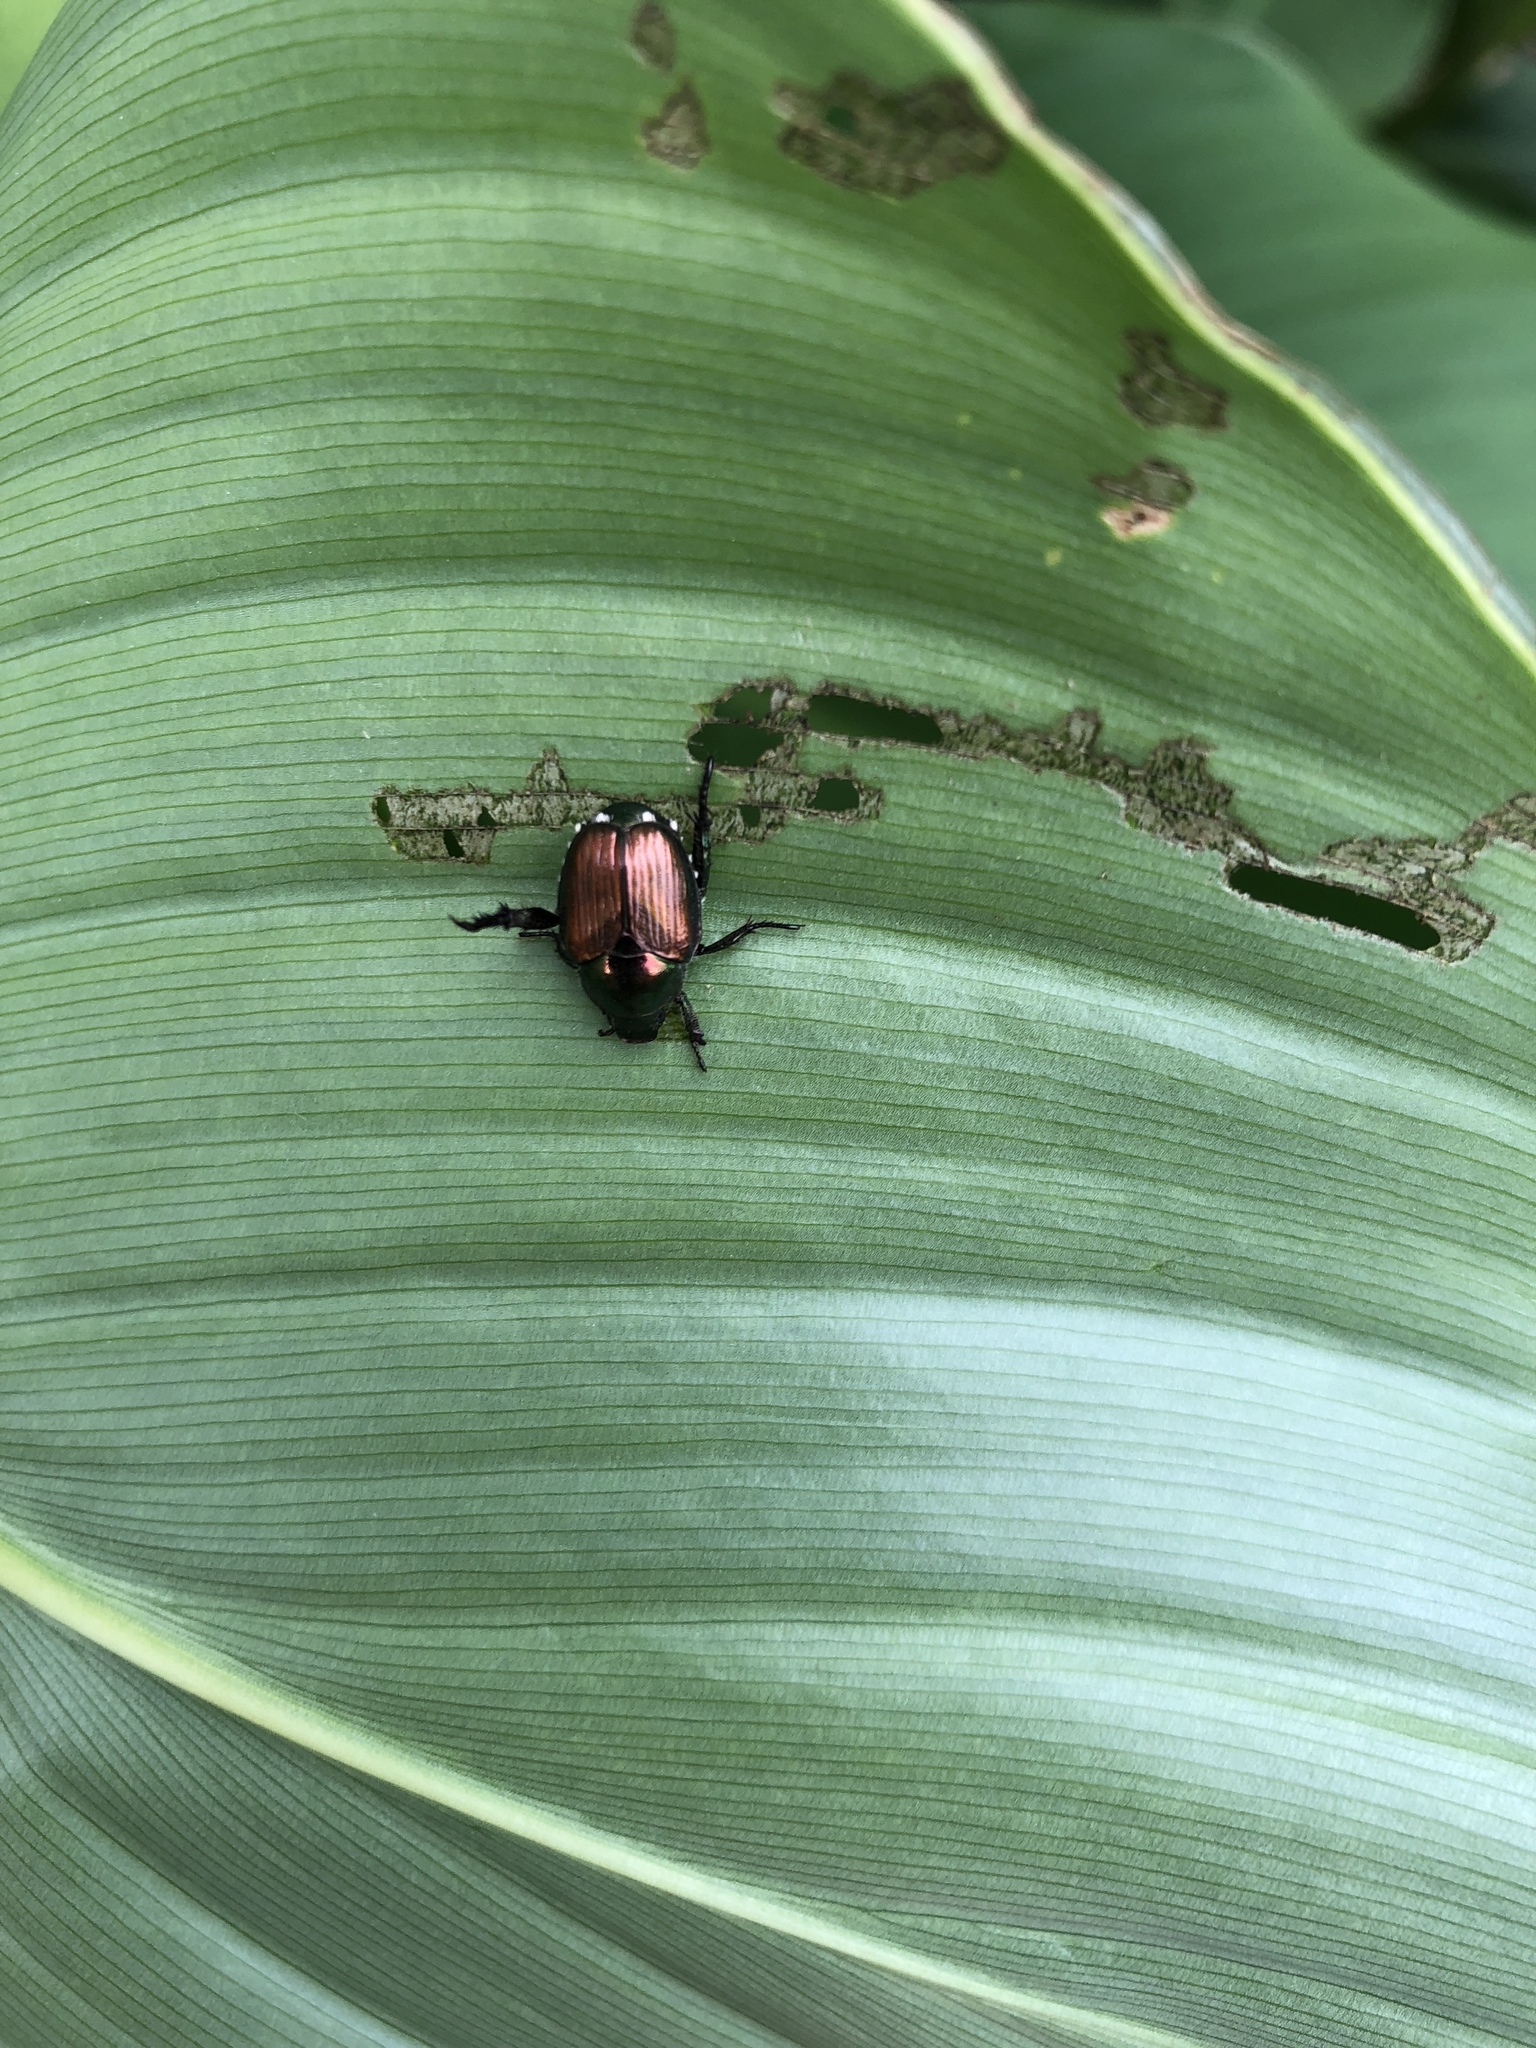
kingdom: Animalia
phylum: Arthropoda
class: Insecta
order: Coleoptera
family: Scarabaeidae
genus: Popillia
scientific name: Popillia japonica
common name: Japanese beetle
